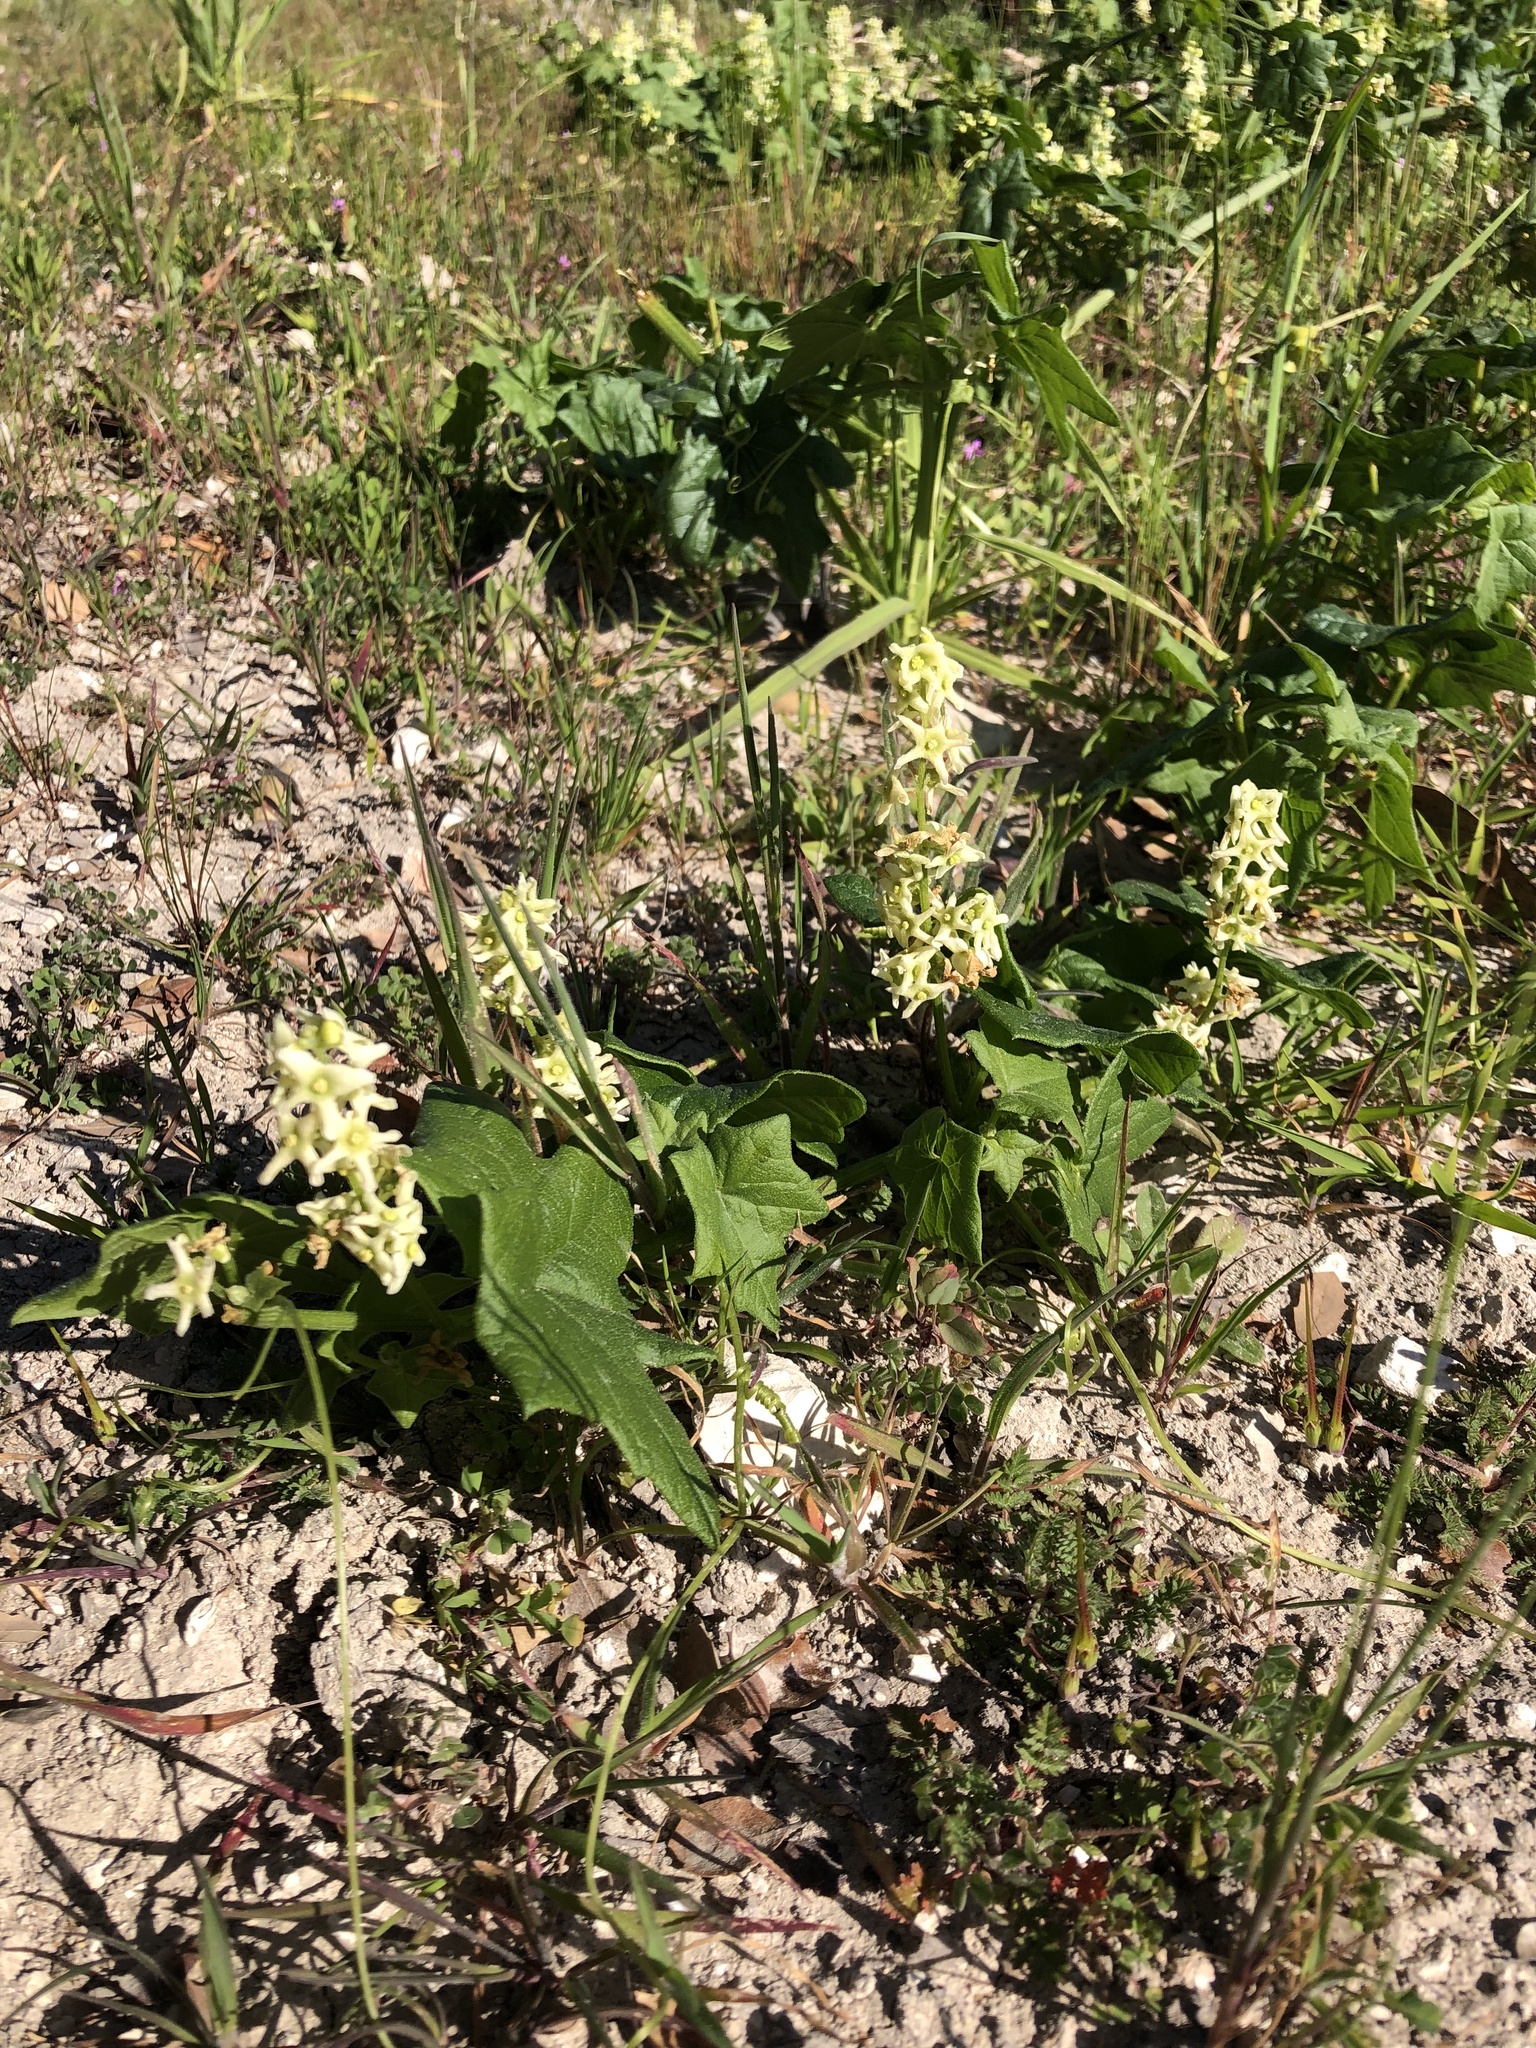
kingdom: Plantae
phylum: Tracheophyta
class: Magnoliopsida
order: Cucurbitales
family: Cucurbitaceae
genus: Marah
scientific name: Marah fabacea
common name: California manroot
